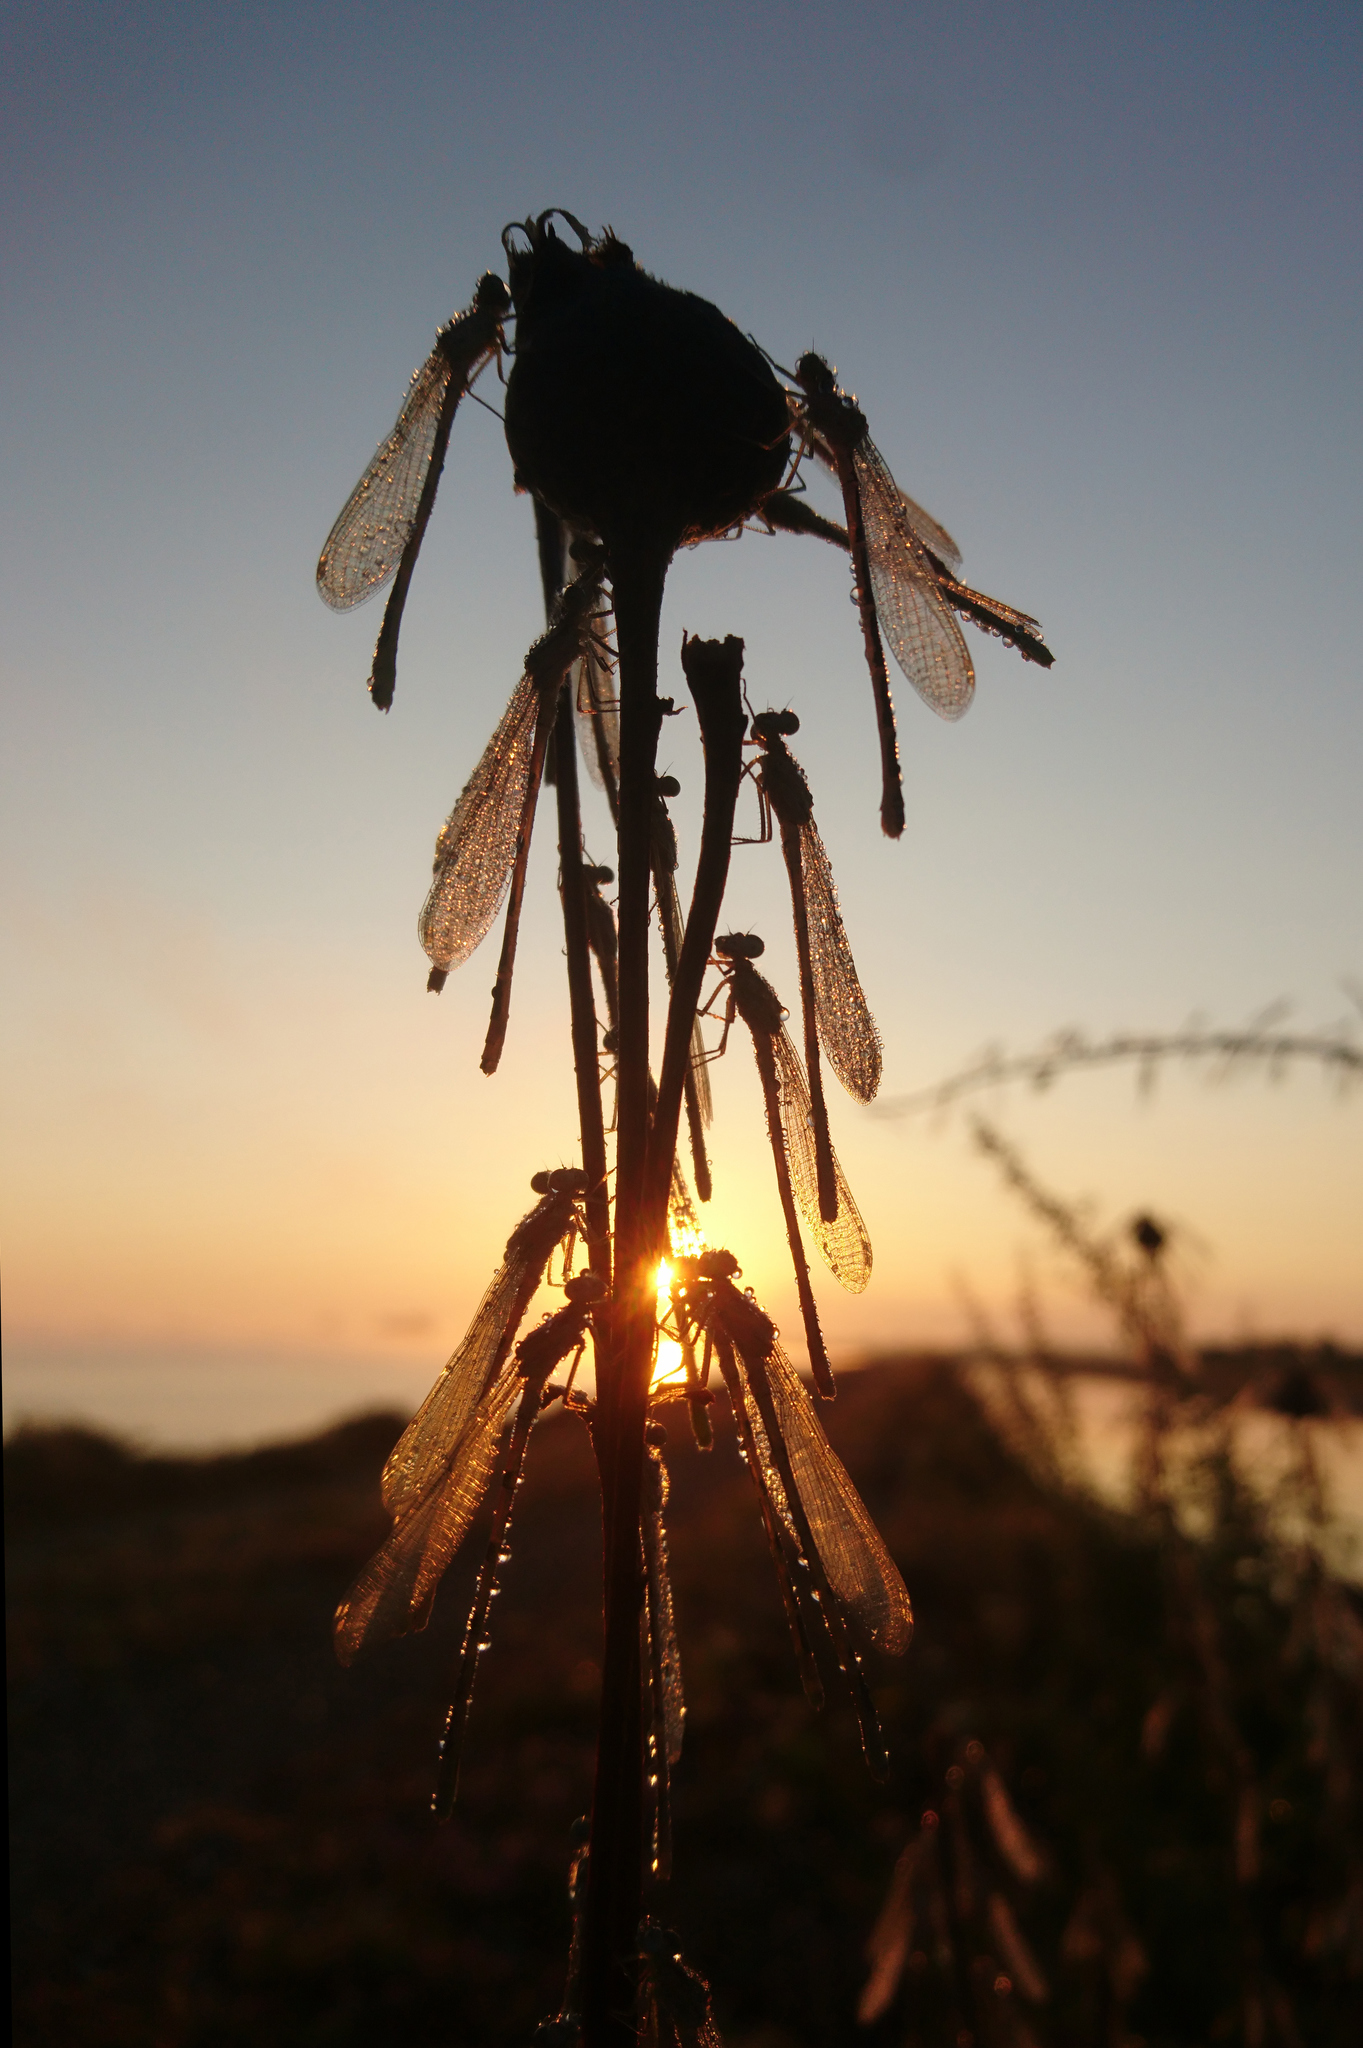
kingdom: Animalia
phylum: Arthropoda
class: Insecta
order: Odonata
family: Coenagrionidae
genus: Enallagma
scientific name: Enallagma cyathigerum
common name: Common blue damselfly
